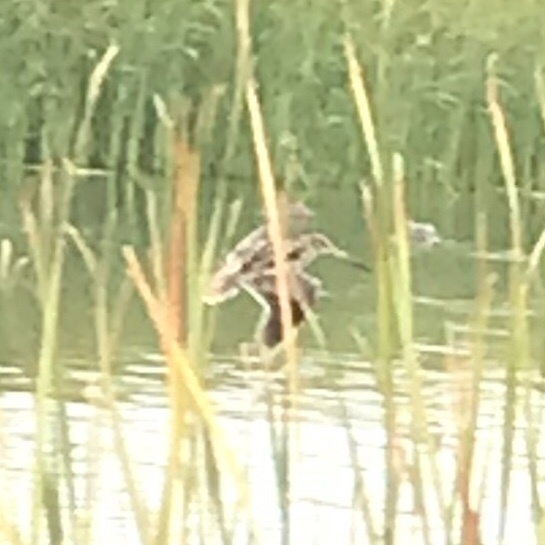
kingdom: Animalia
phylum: Chordata
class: Aves
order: Charadriiformes
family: Scolopacidae
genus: Gallinago
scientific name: Gallinago delicata
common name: Wilson's snipe
